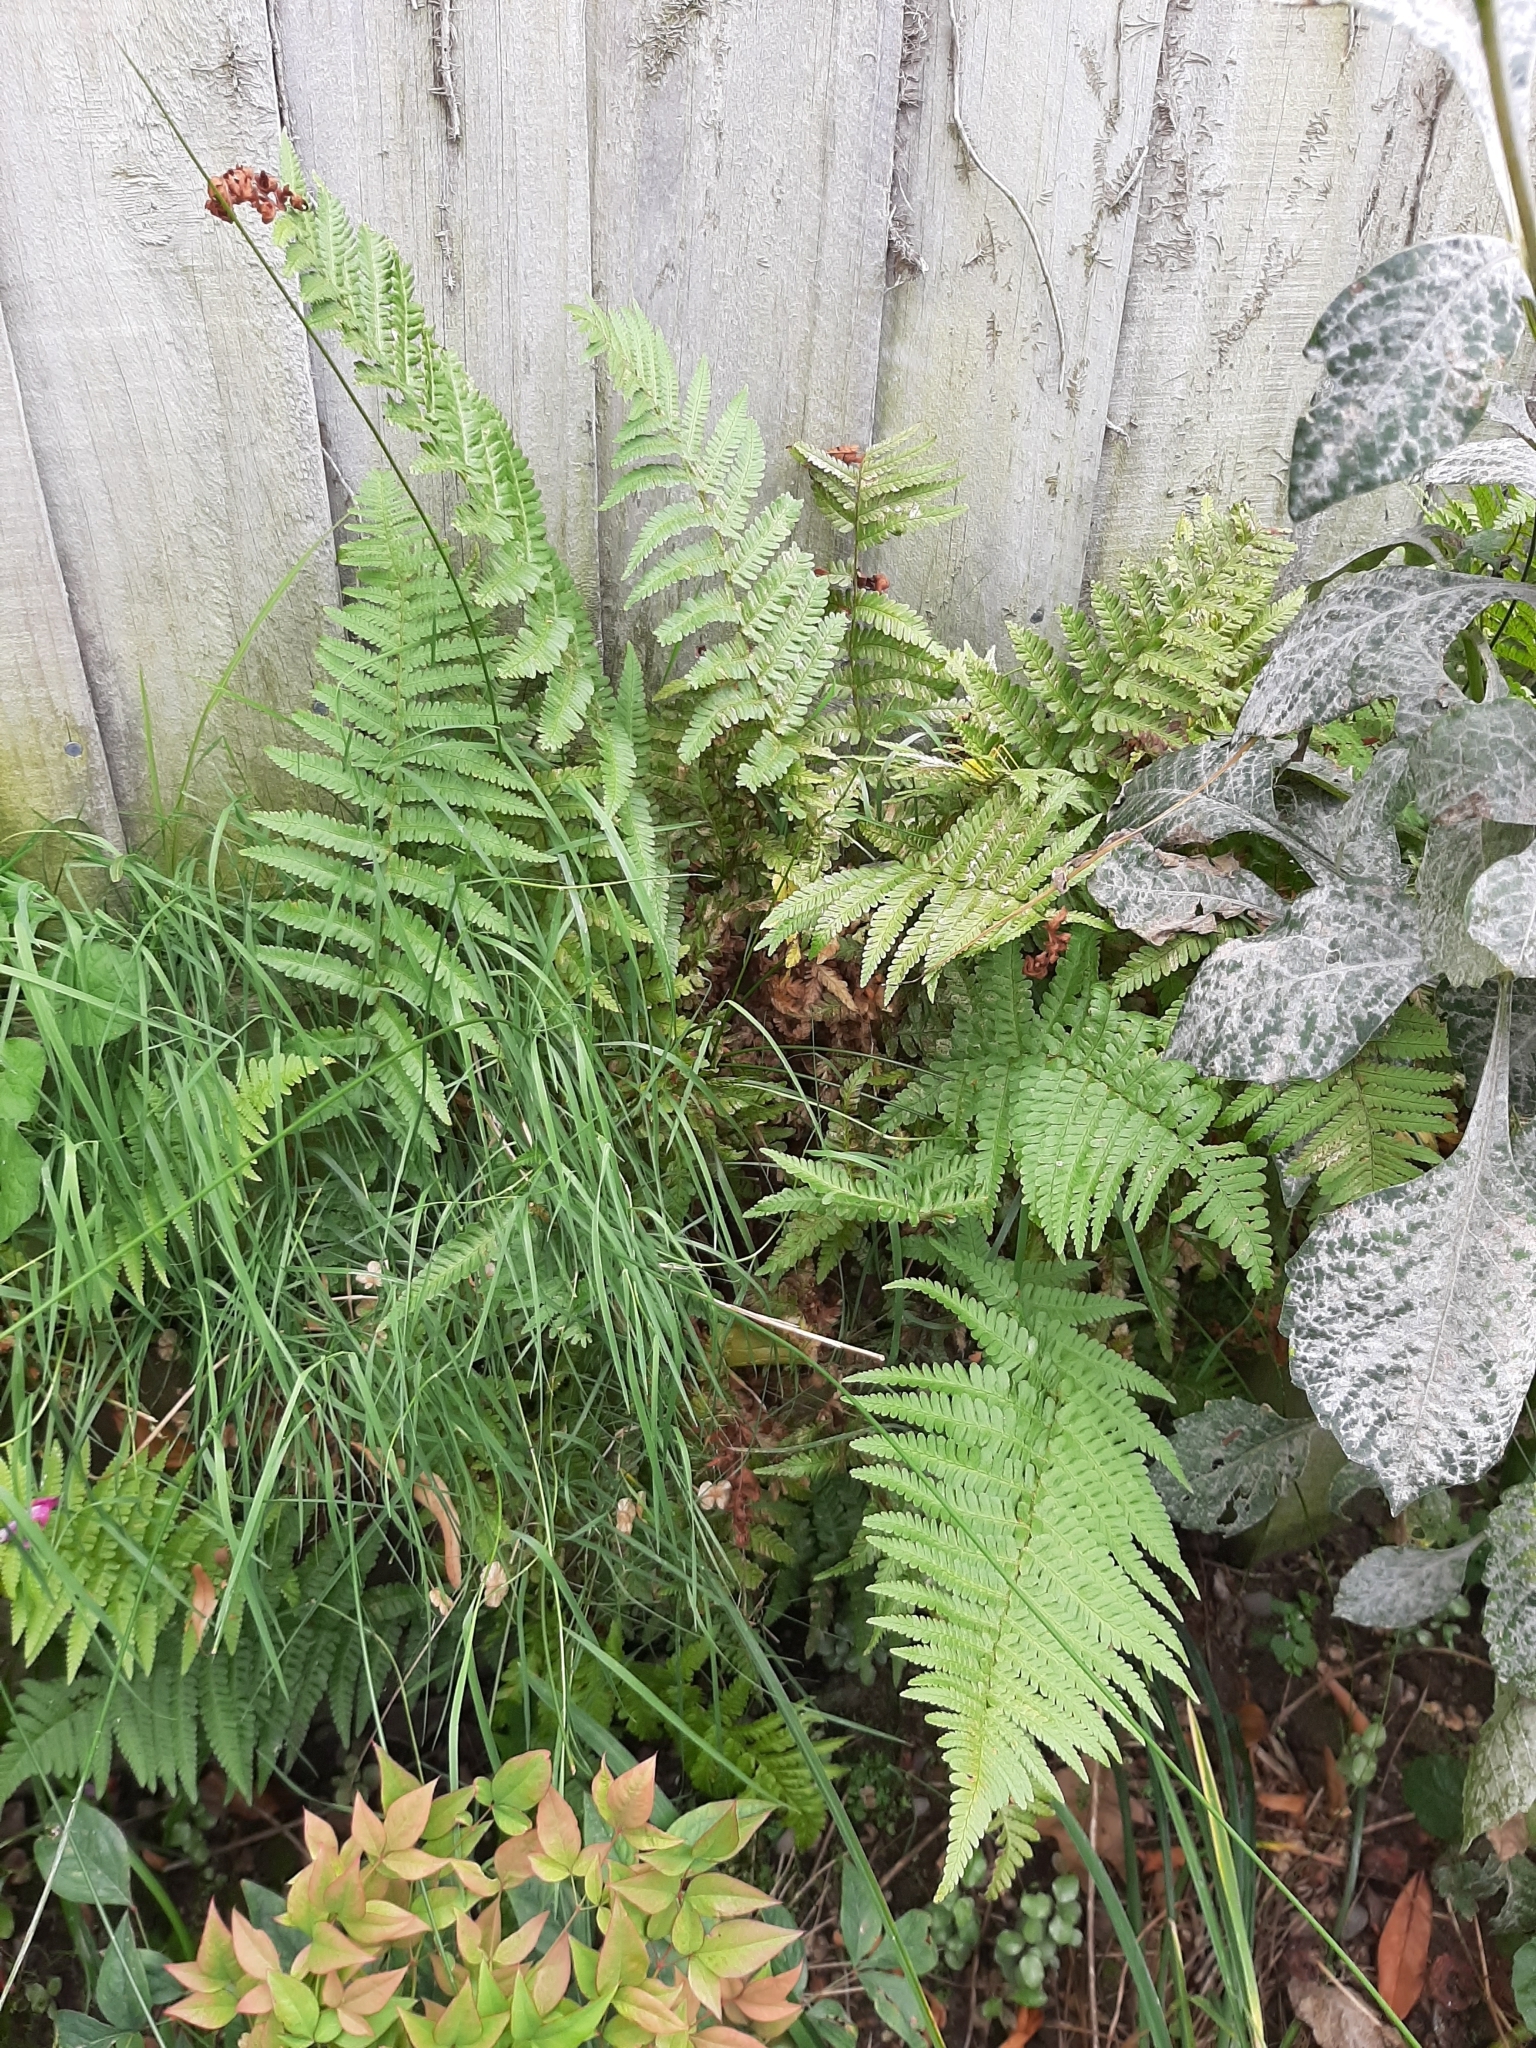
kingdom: Plantae
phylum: Tracheophyta
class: Polypodiopsida
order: Polypodiales
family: Dryopteridaceae
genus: Dryopteris
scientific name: Dryopteris filix-mas
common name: Male fern
